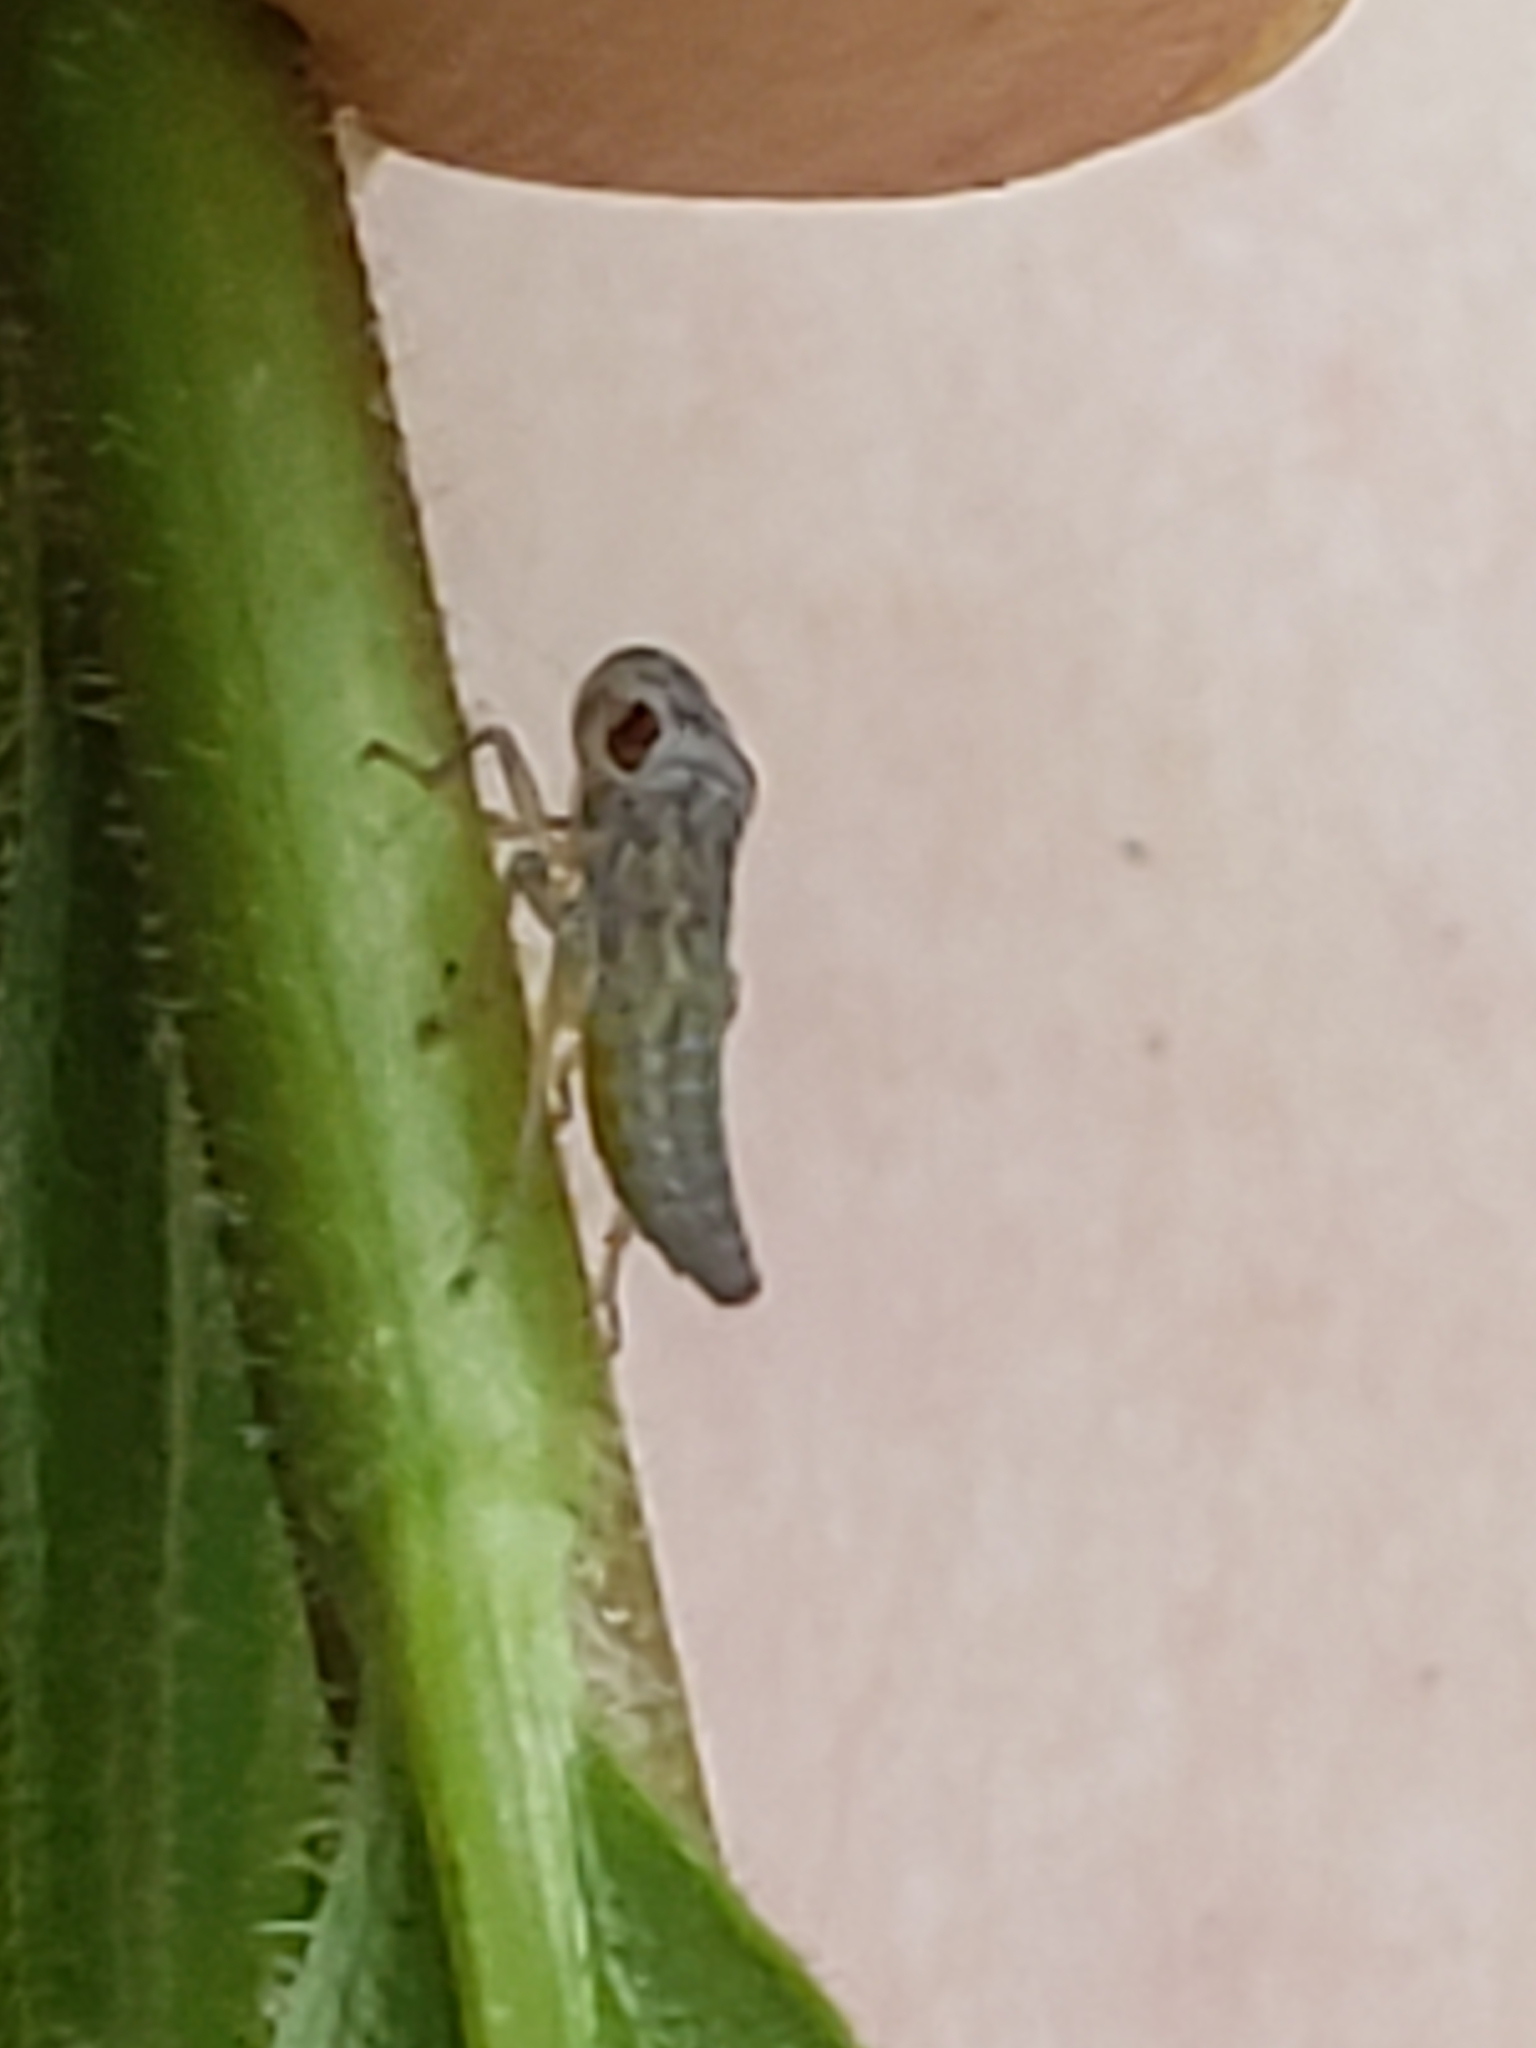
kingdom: Animalia
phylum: Arthropoda
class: Insecta
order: Hemiptera
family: Cicadellidae
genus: Oncometopia
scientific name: Oncometopia orbona
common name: Broad-headed sharpshooter
